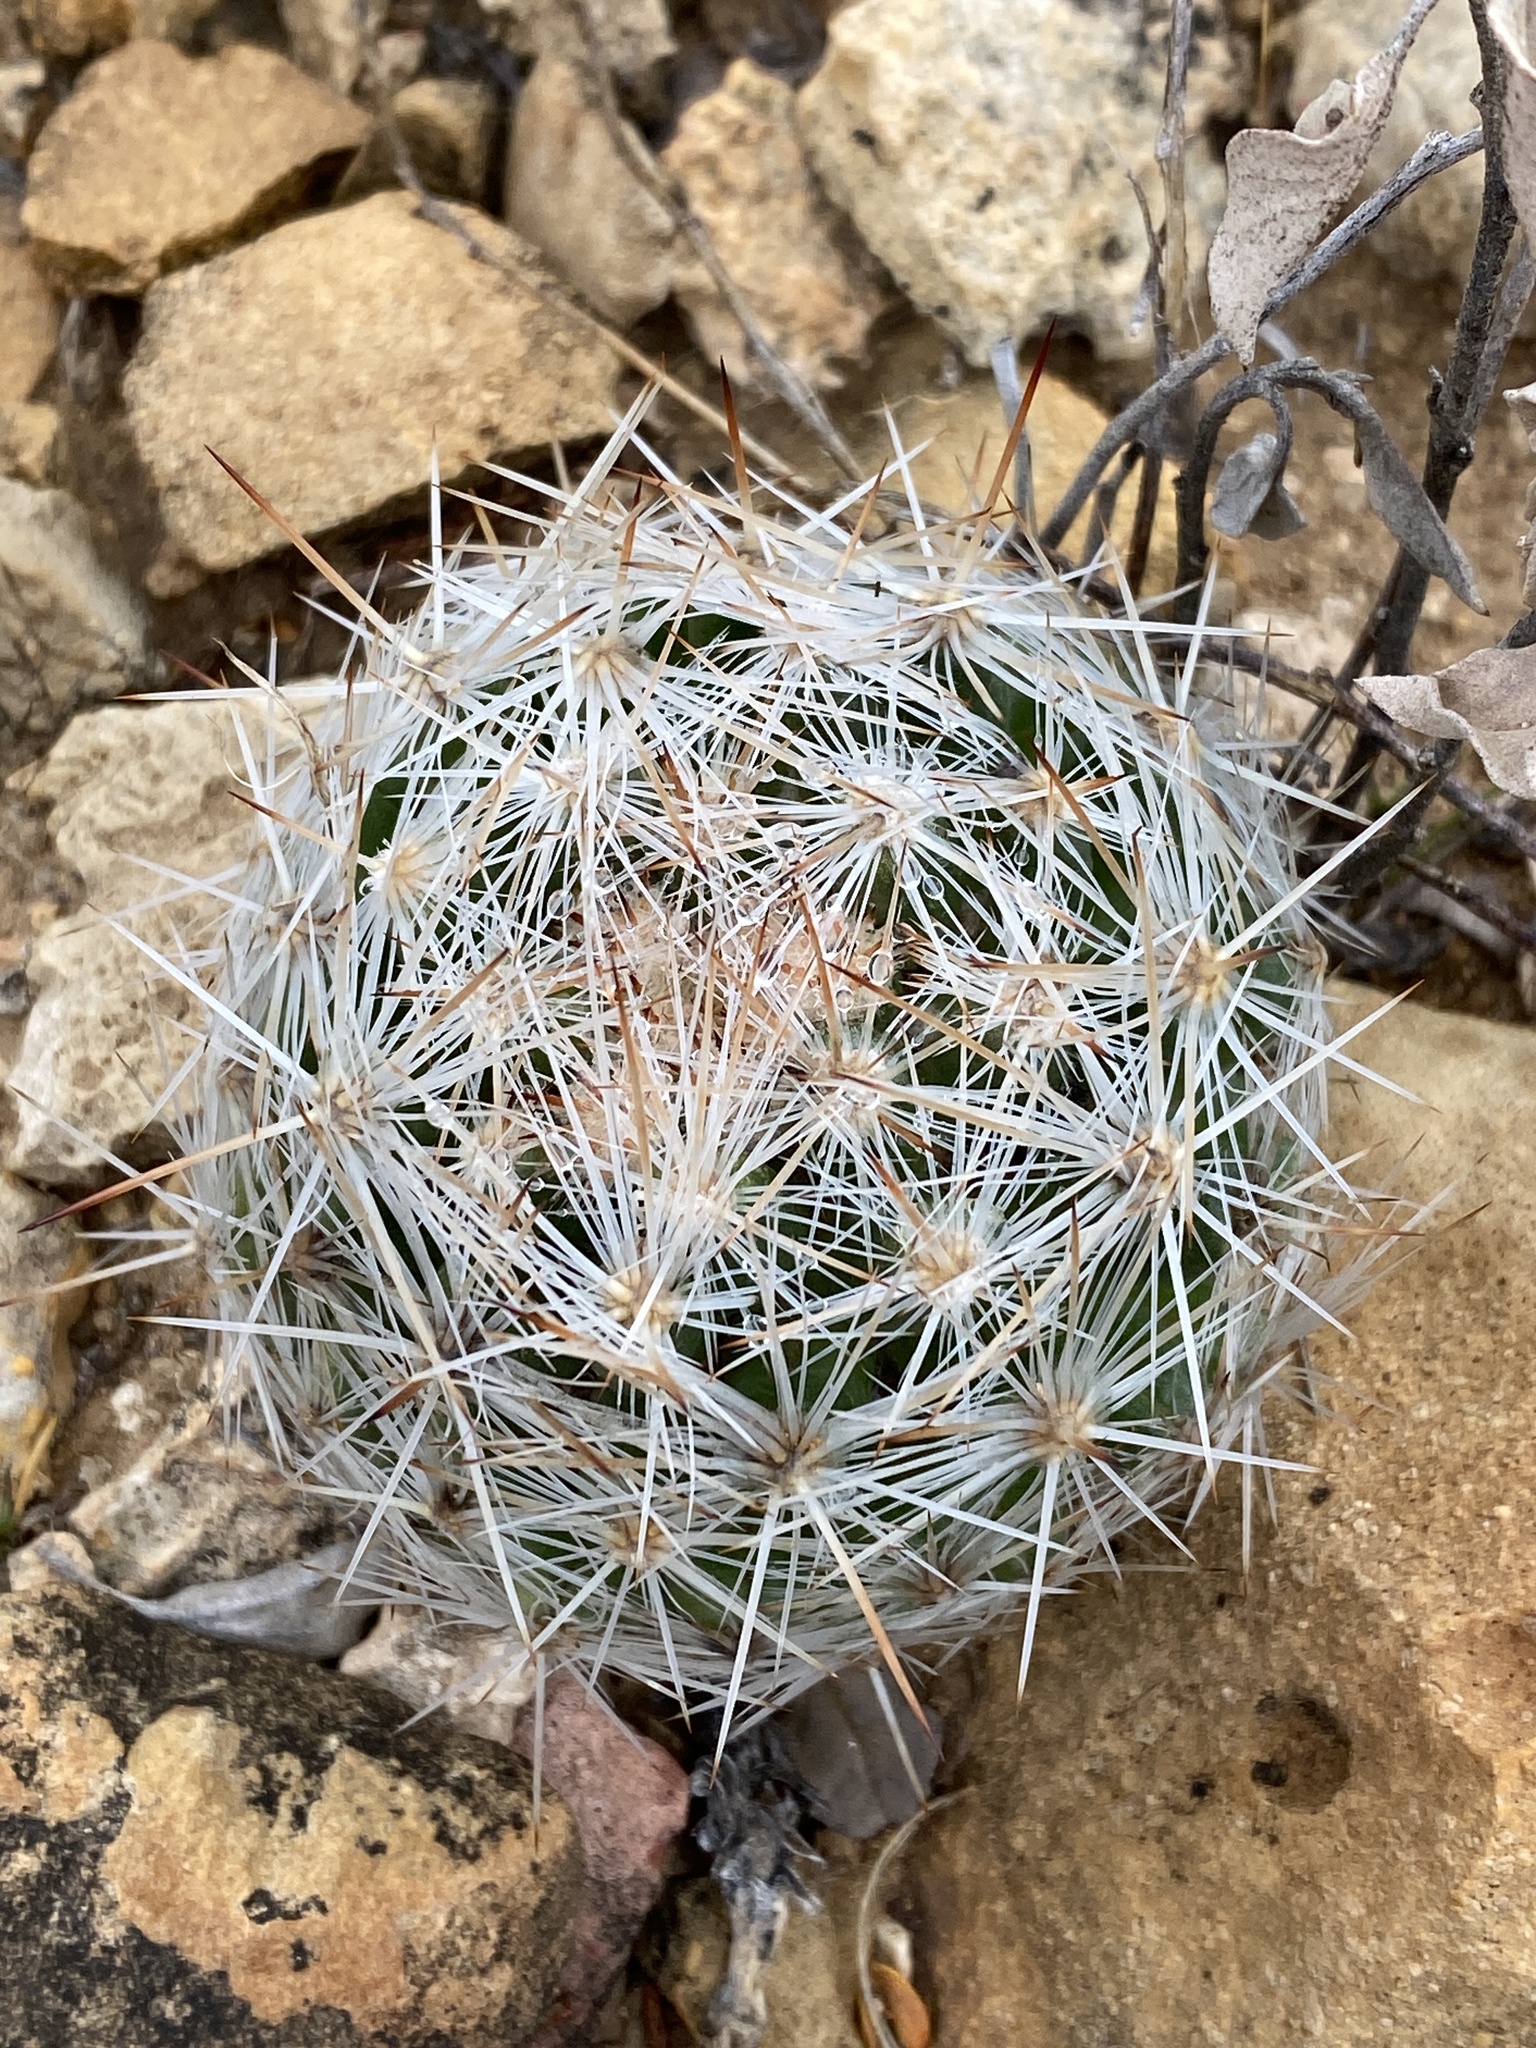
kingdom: Plantae
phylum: Tracheophyta
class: Magnoliopsida
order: Caryophyllales
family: Cactaceae
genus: Pelecyphora
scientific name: Pelecyphora vivipara
